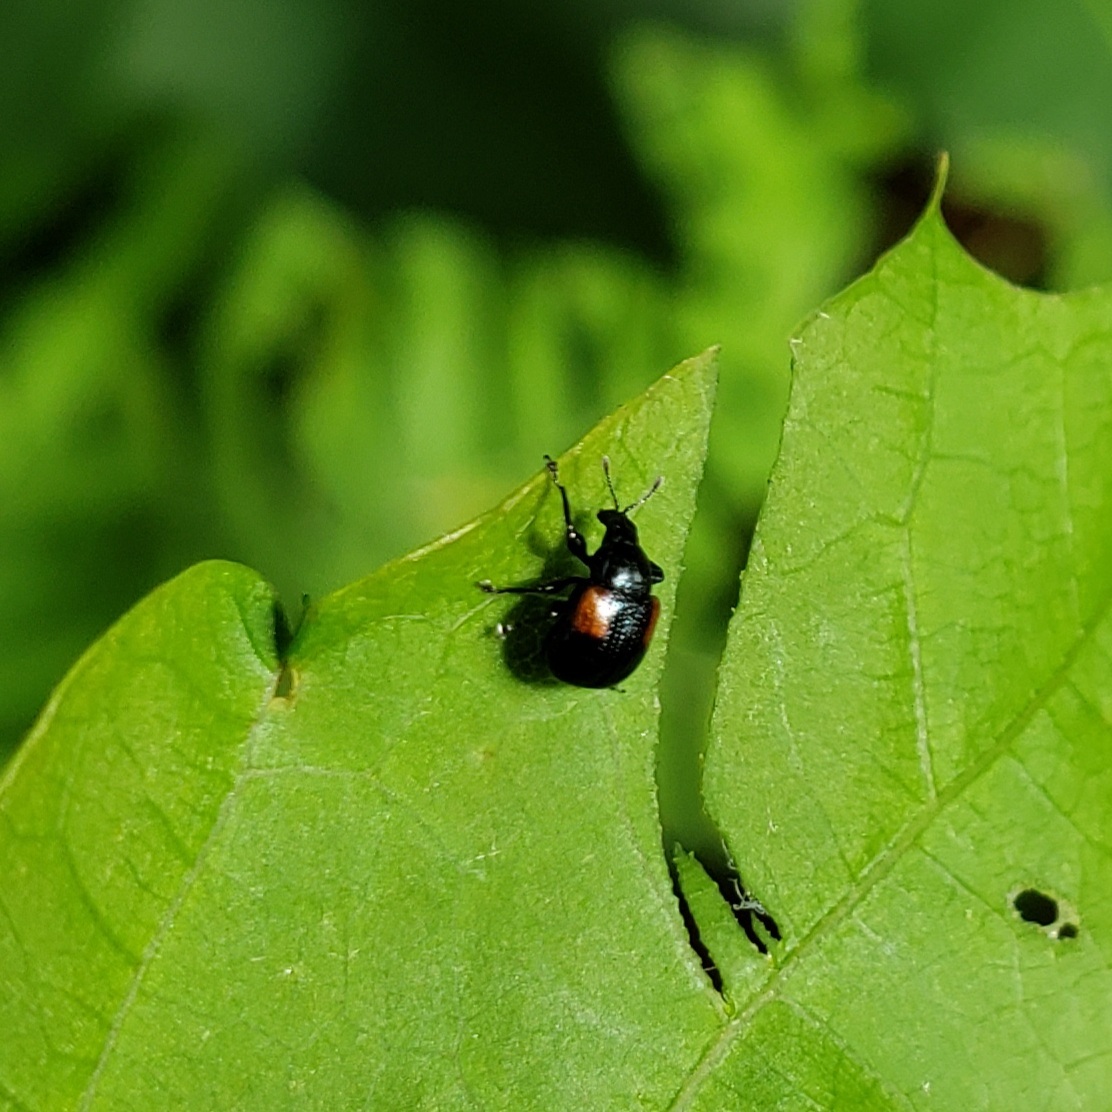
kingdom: Animalia
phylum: Arthropoda
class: Insecta
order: Coleoptera
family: Attelabidae
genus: Attelabus
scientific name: Attelabus bipustulatus
